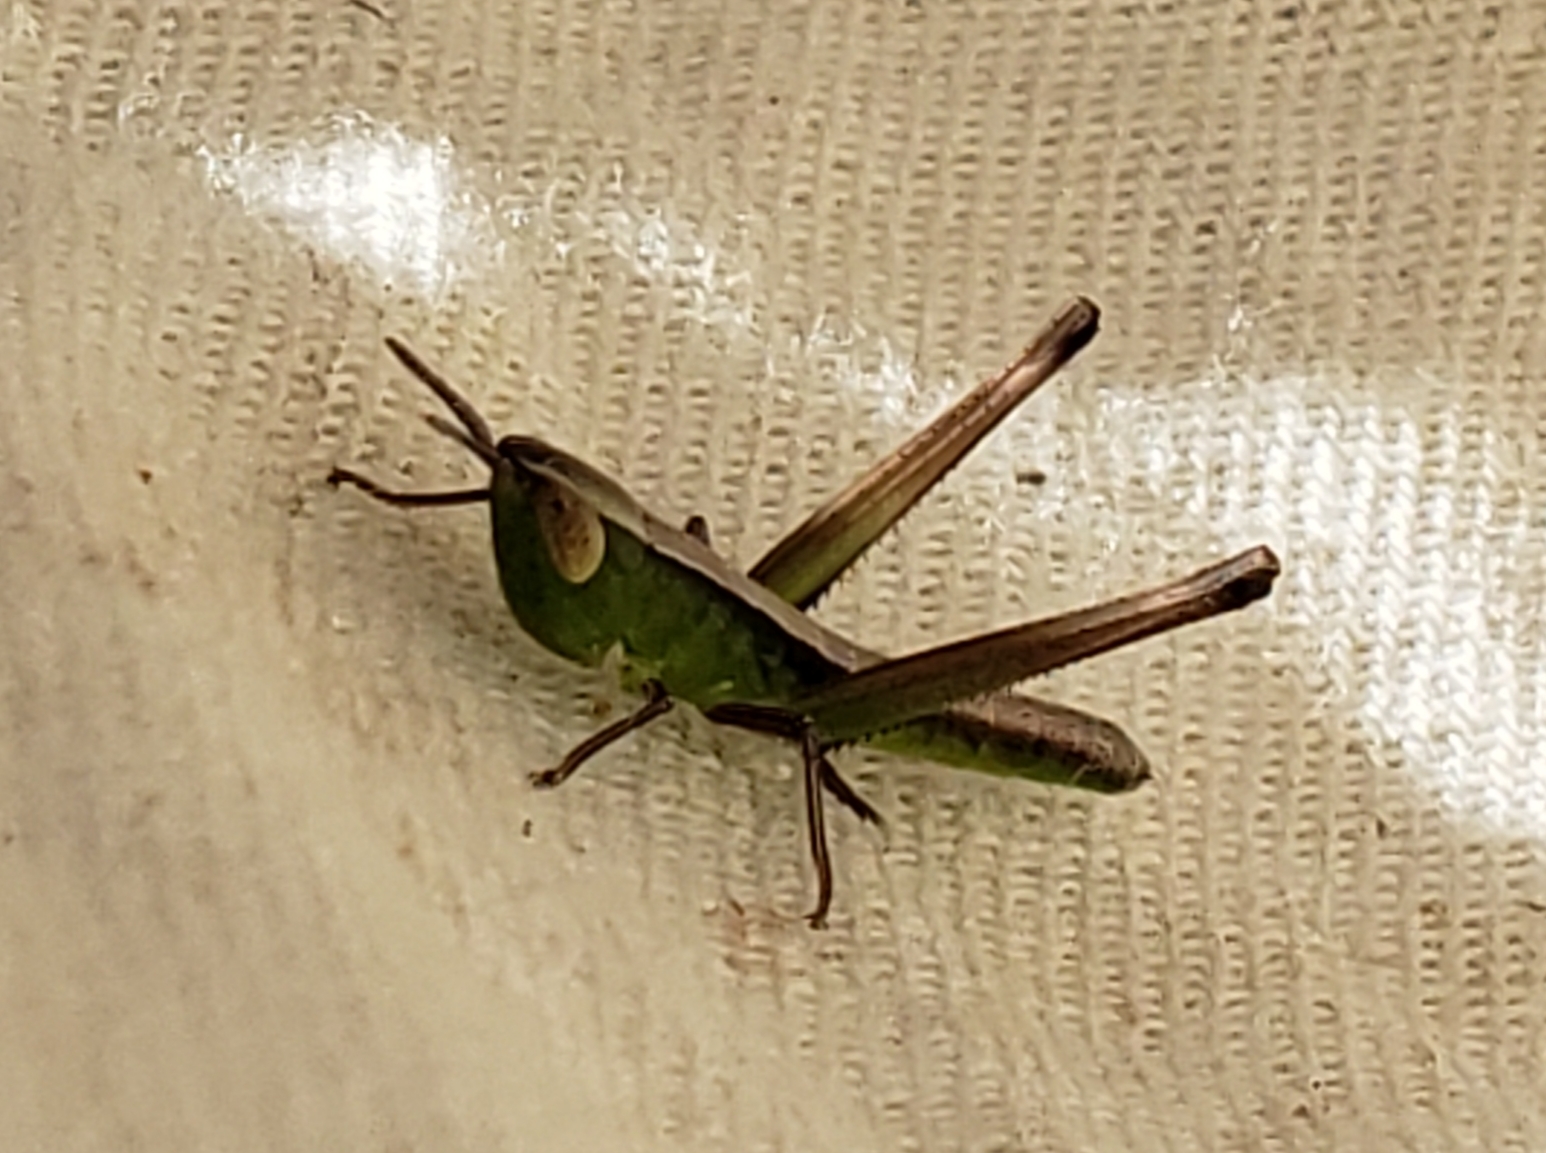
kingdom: Animalia
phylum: Arthropoda
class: Insecta
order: Orthoptera
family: Acrididae
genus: Syrbula
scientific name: Syrbula admirabilis
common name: Handsome grasshopper
